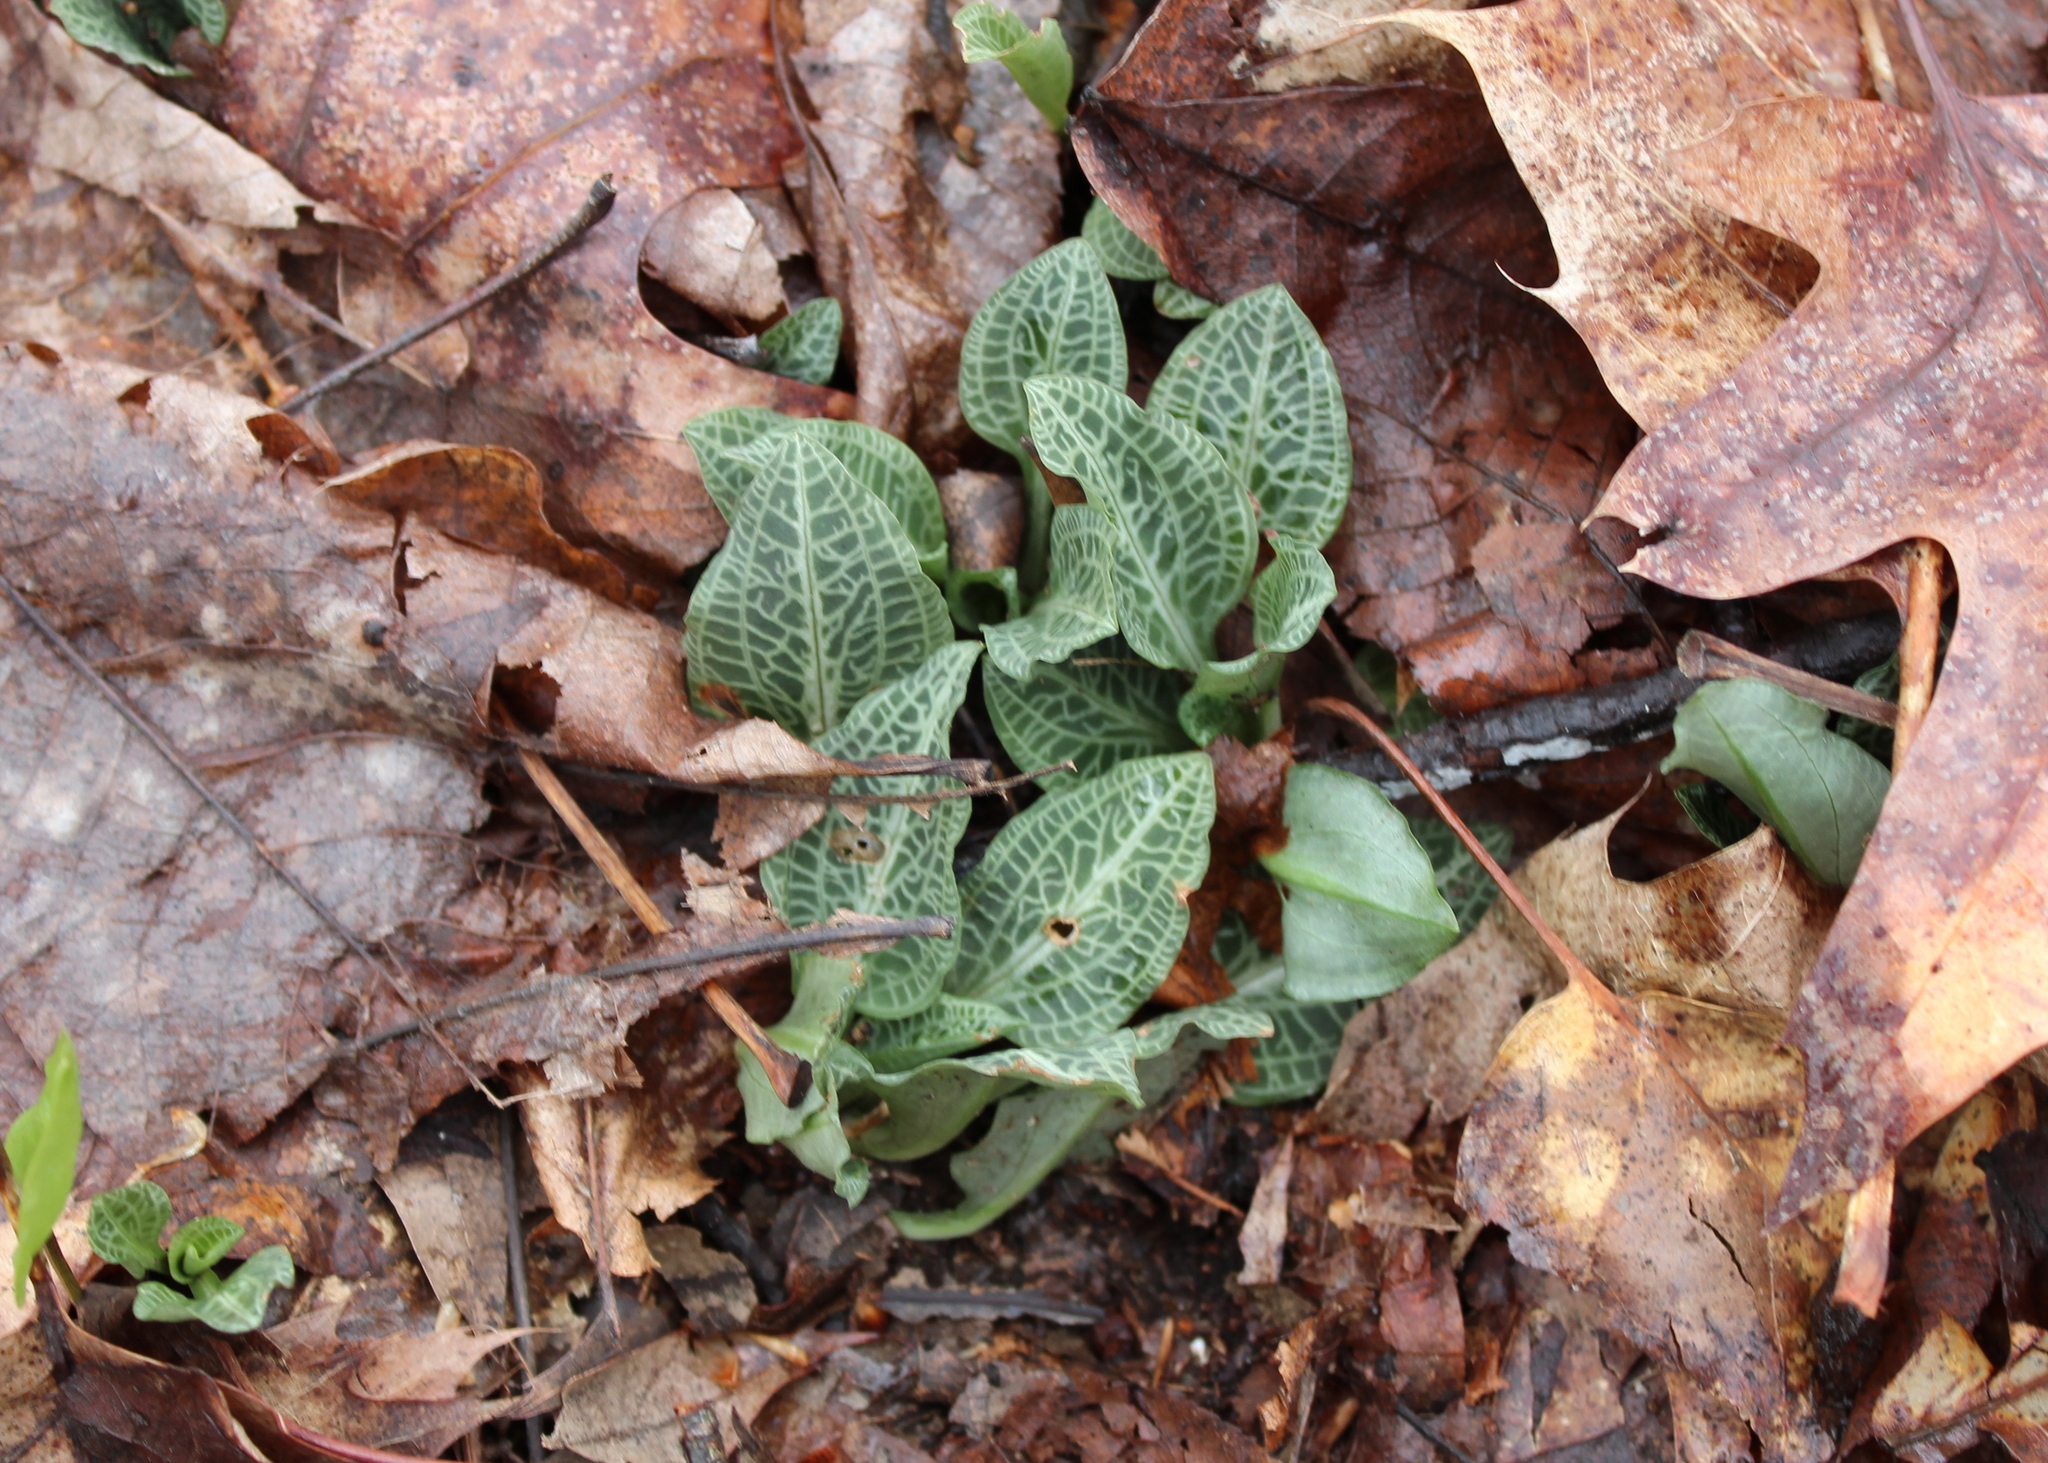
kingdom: Plantae
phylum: Tracheophyta
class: Liliopsida
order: Asparagales
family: Orchidaceae
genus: Goodyera
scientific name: Goodyera pubescens
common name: Downy rattlesnake-plantain
